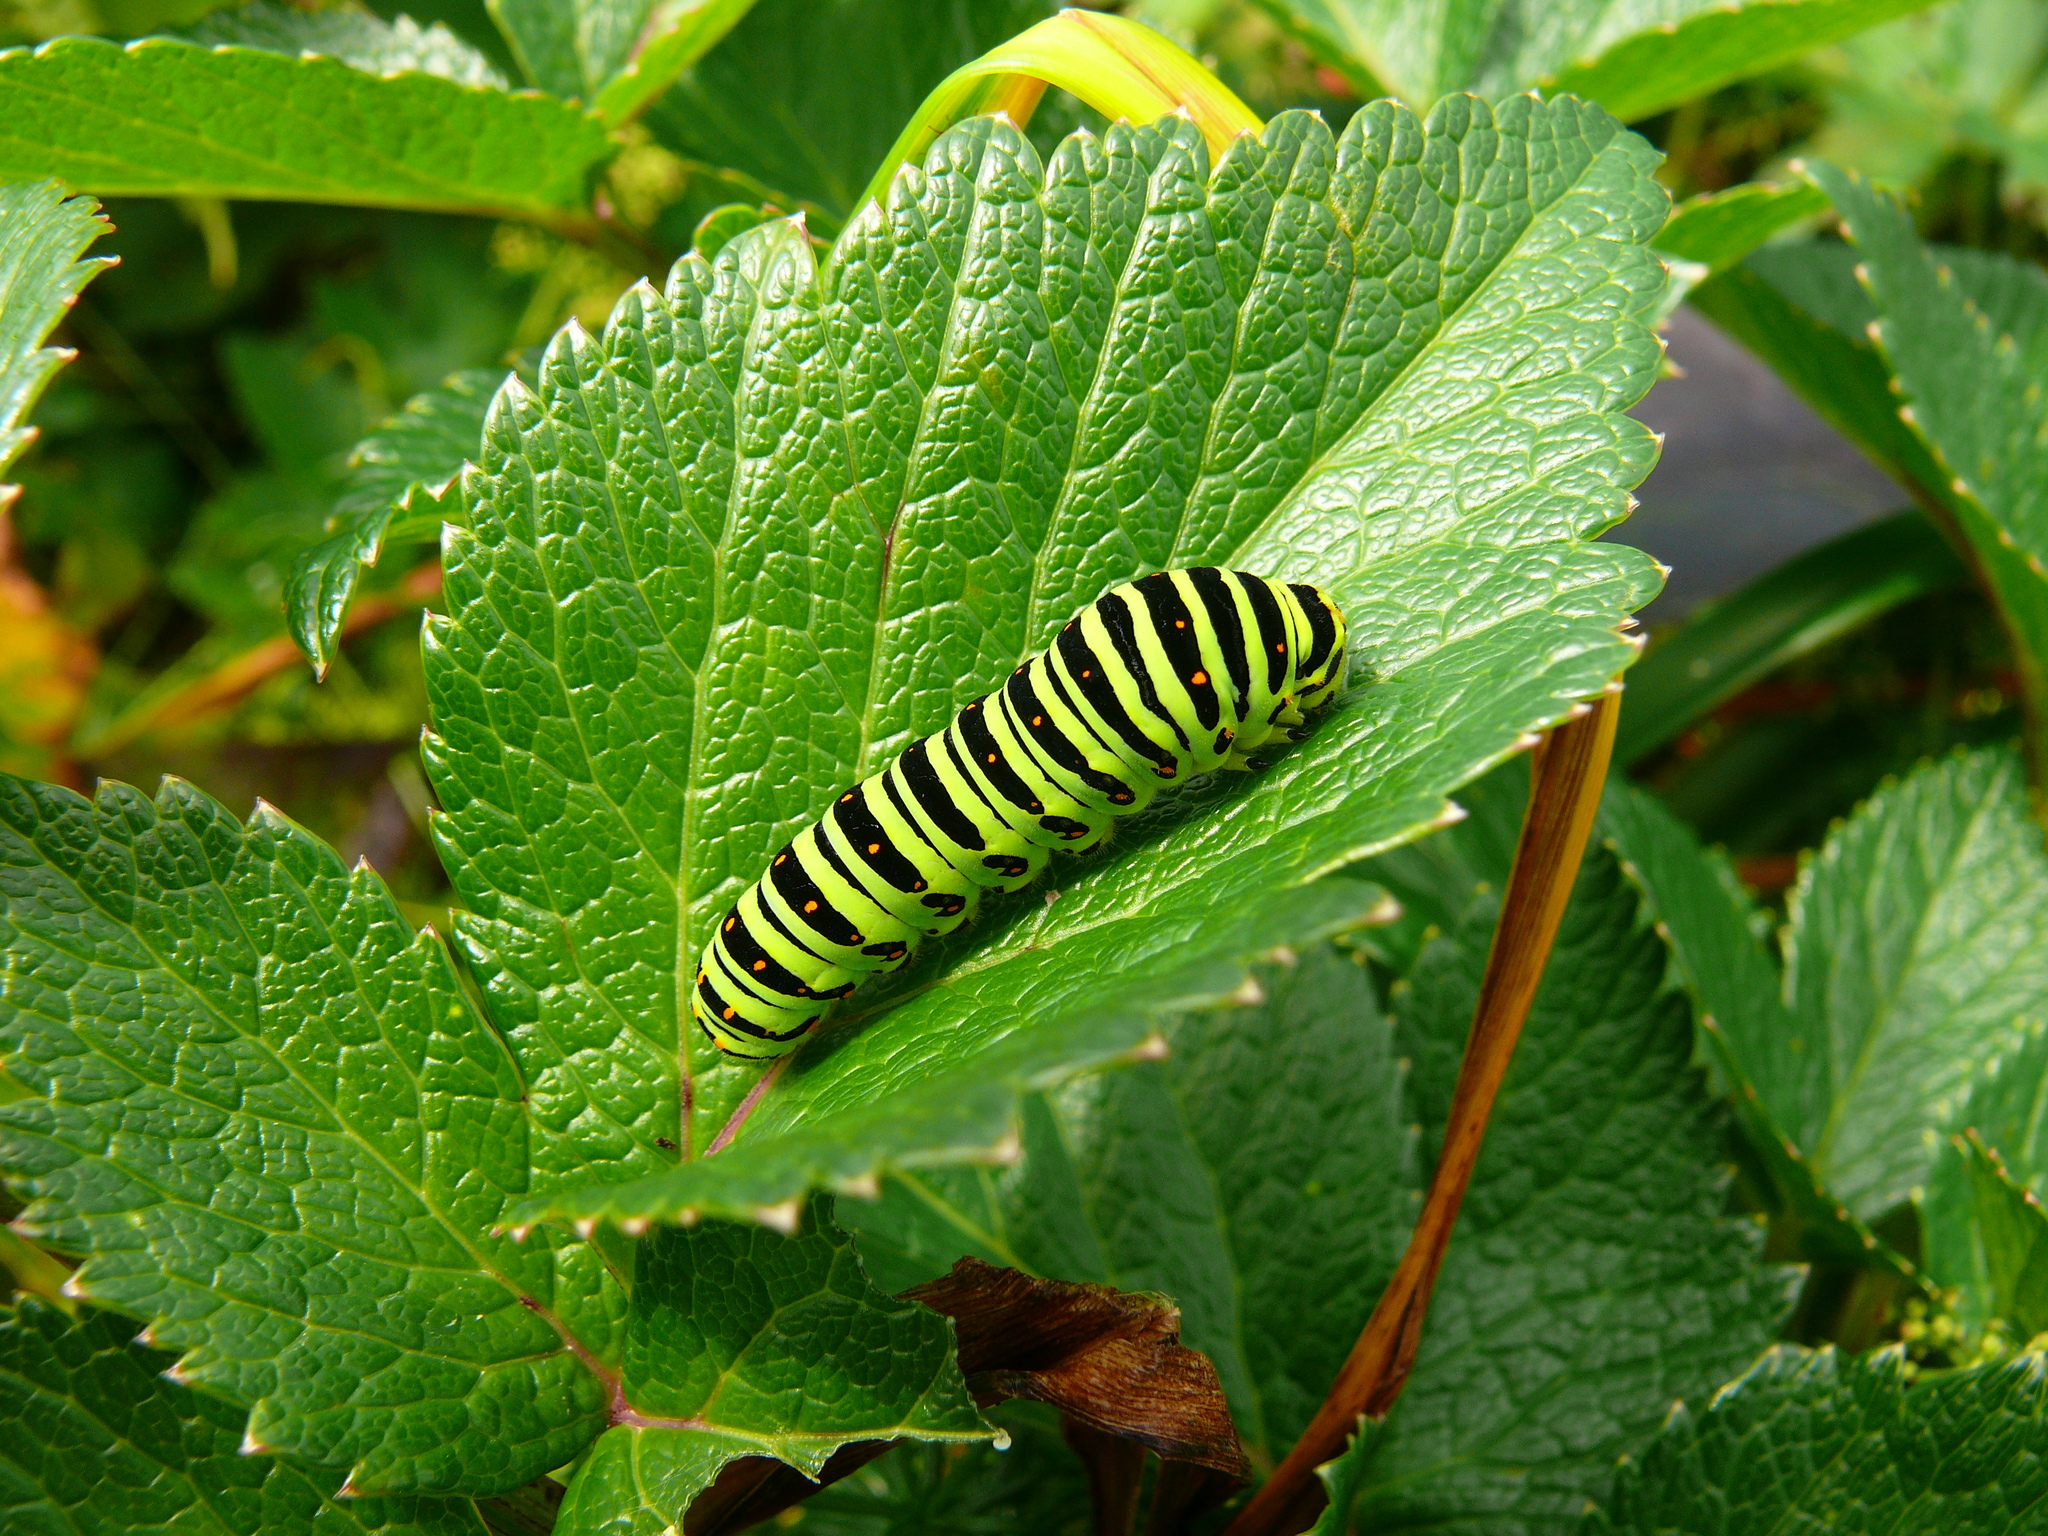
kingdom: Animalia
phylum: Arthropoda
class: Insecta
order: Lepidoptera
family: Papilionidae
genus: Papilio
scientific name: Papilio machaon
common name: Swallowtail
